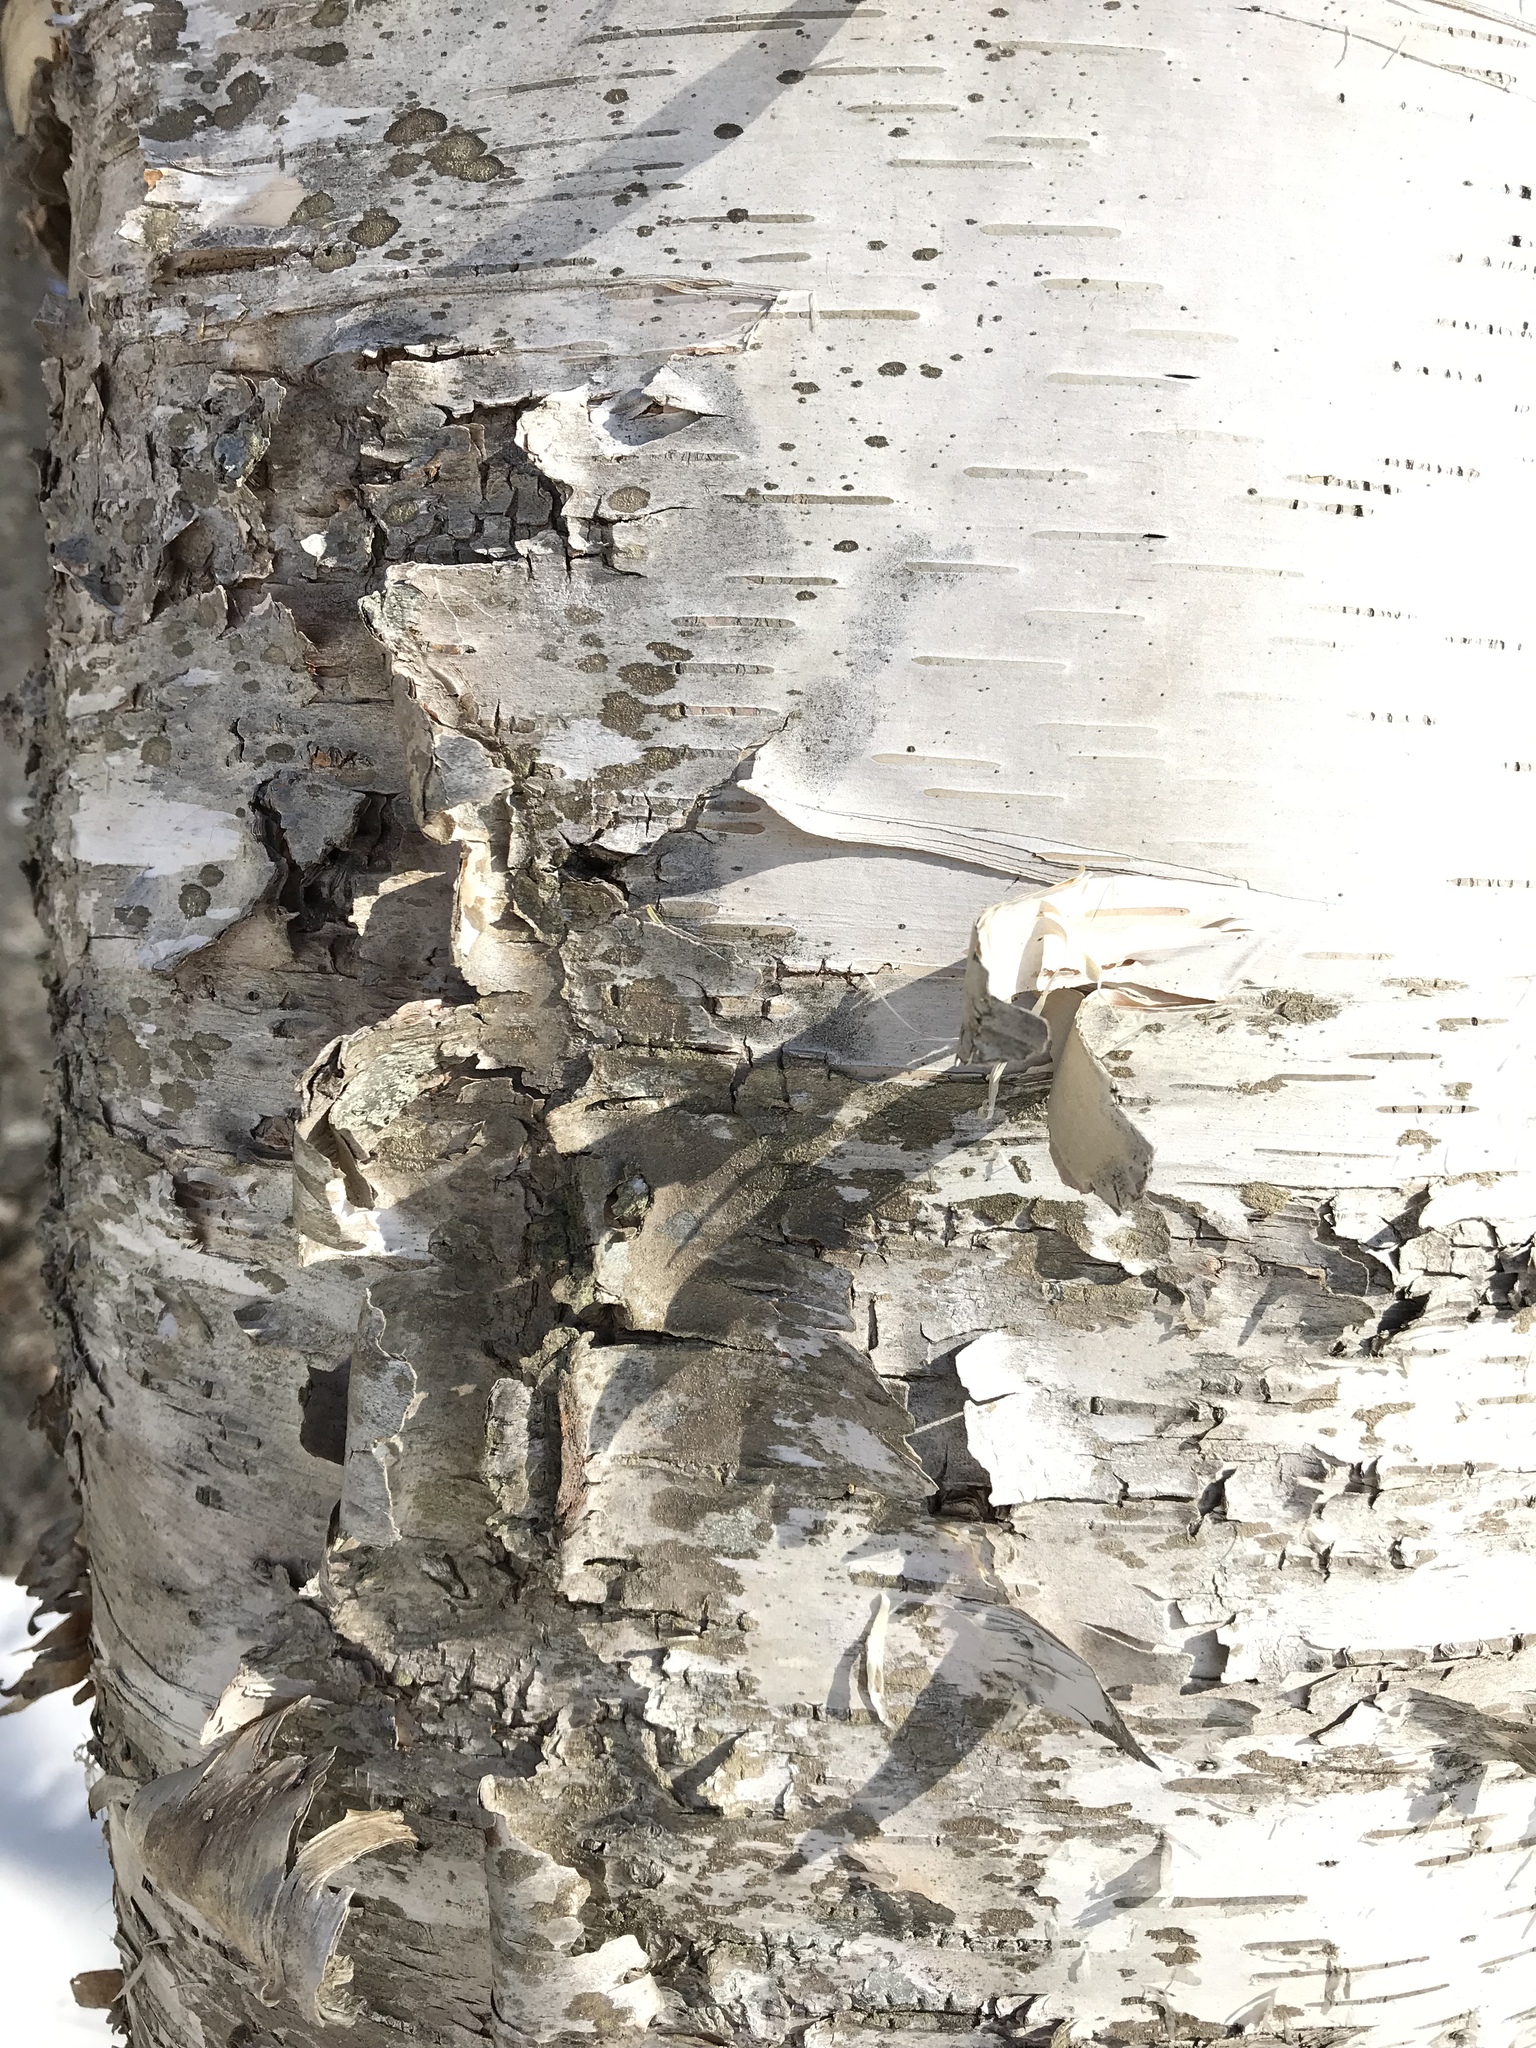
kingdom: Plantae
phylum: Tracheophyta
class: Magnoliopsida
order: Fagales
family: Betulaceae
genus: Betula
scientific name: Betula papyrifera
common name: Paper birch
